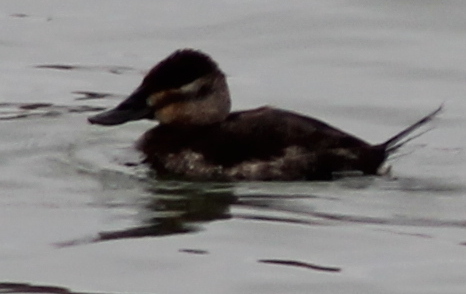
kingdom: Animalia
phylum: Chordata
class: Aves
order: Anseriformes
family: Anatidae
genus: Oxyura
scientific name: Oxyura jamaicensis
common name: Ruddy duck
